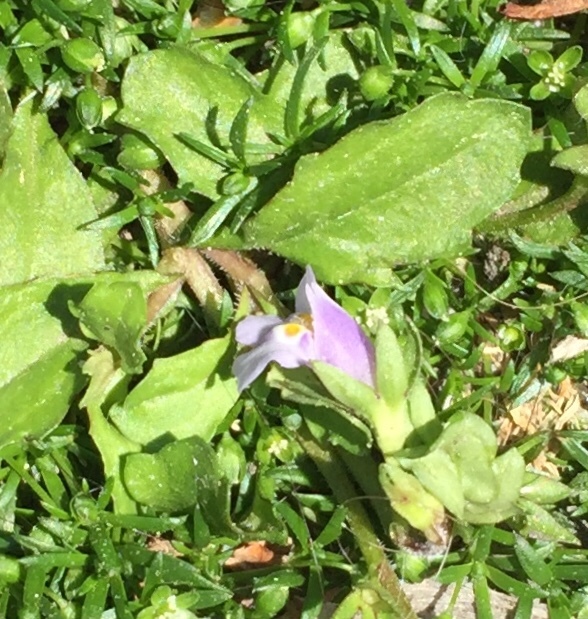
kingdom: Plantae
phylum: Tracheophyta
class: Magnoliopsida
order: Lamiales
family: Mazaceae
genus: Mazus
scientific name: Mazus pumilus
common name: Japanese mazus
